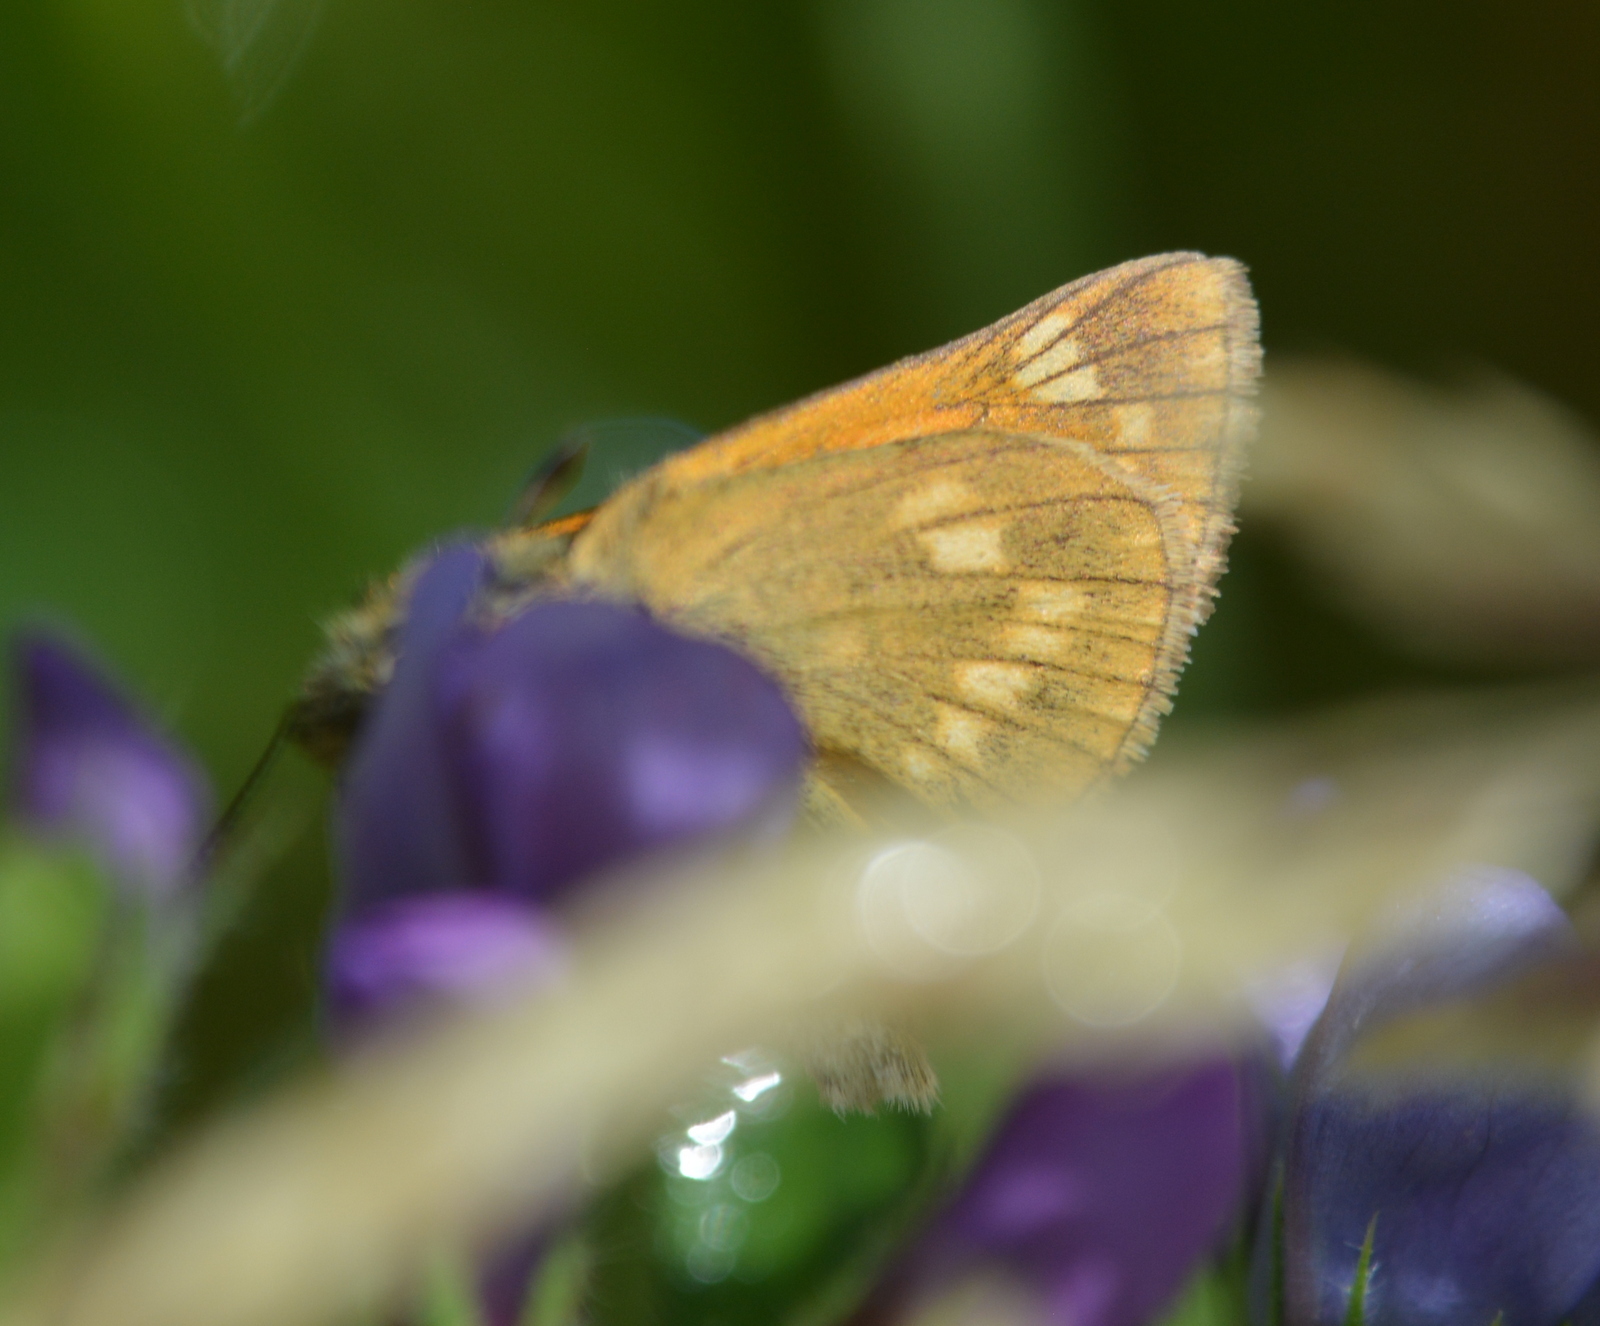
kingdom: Animalia
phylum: Arthropoda
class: Insecta
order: Lepidoptera
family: Hesperiidae
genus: Ochlodes
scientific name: Ochlodes venata
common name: Large skipper
